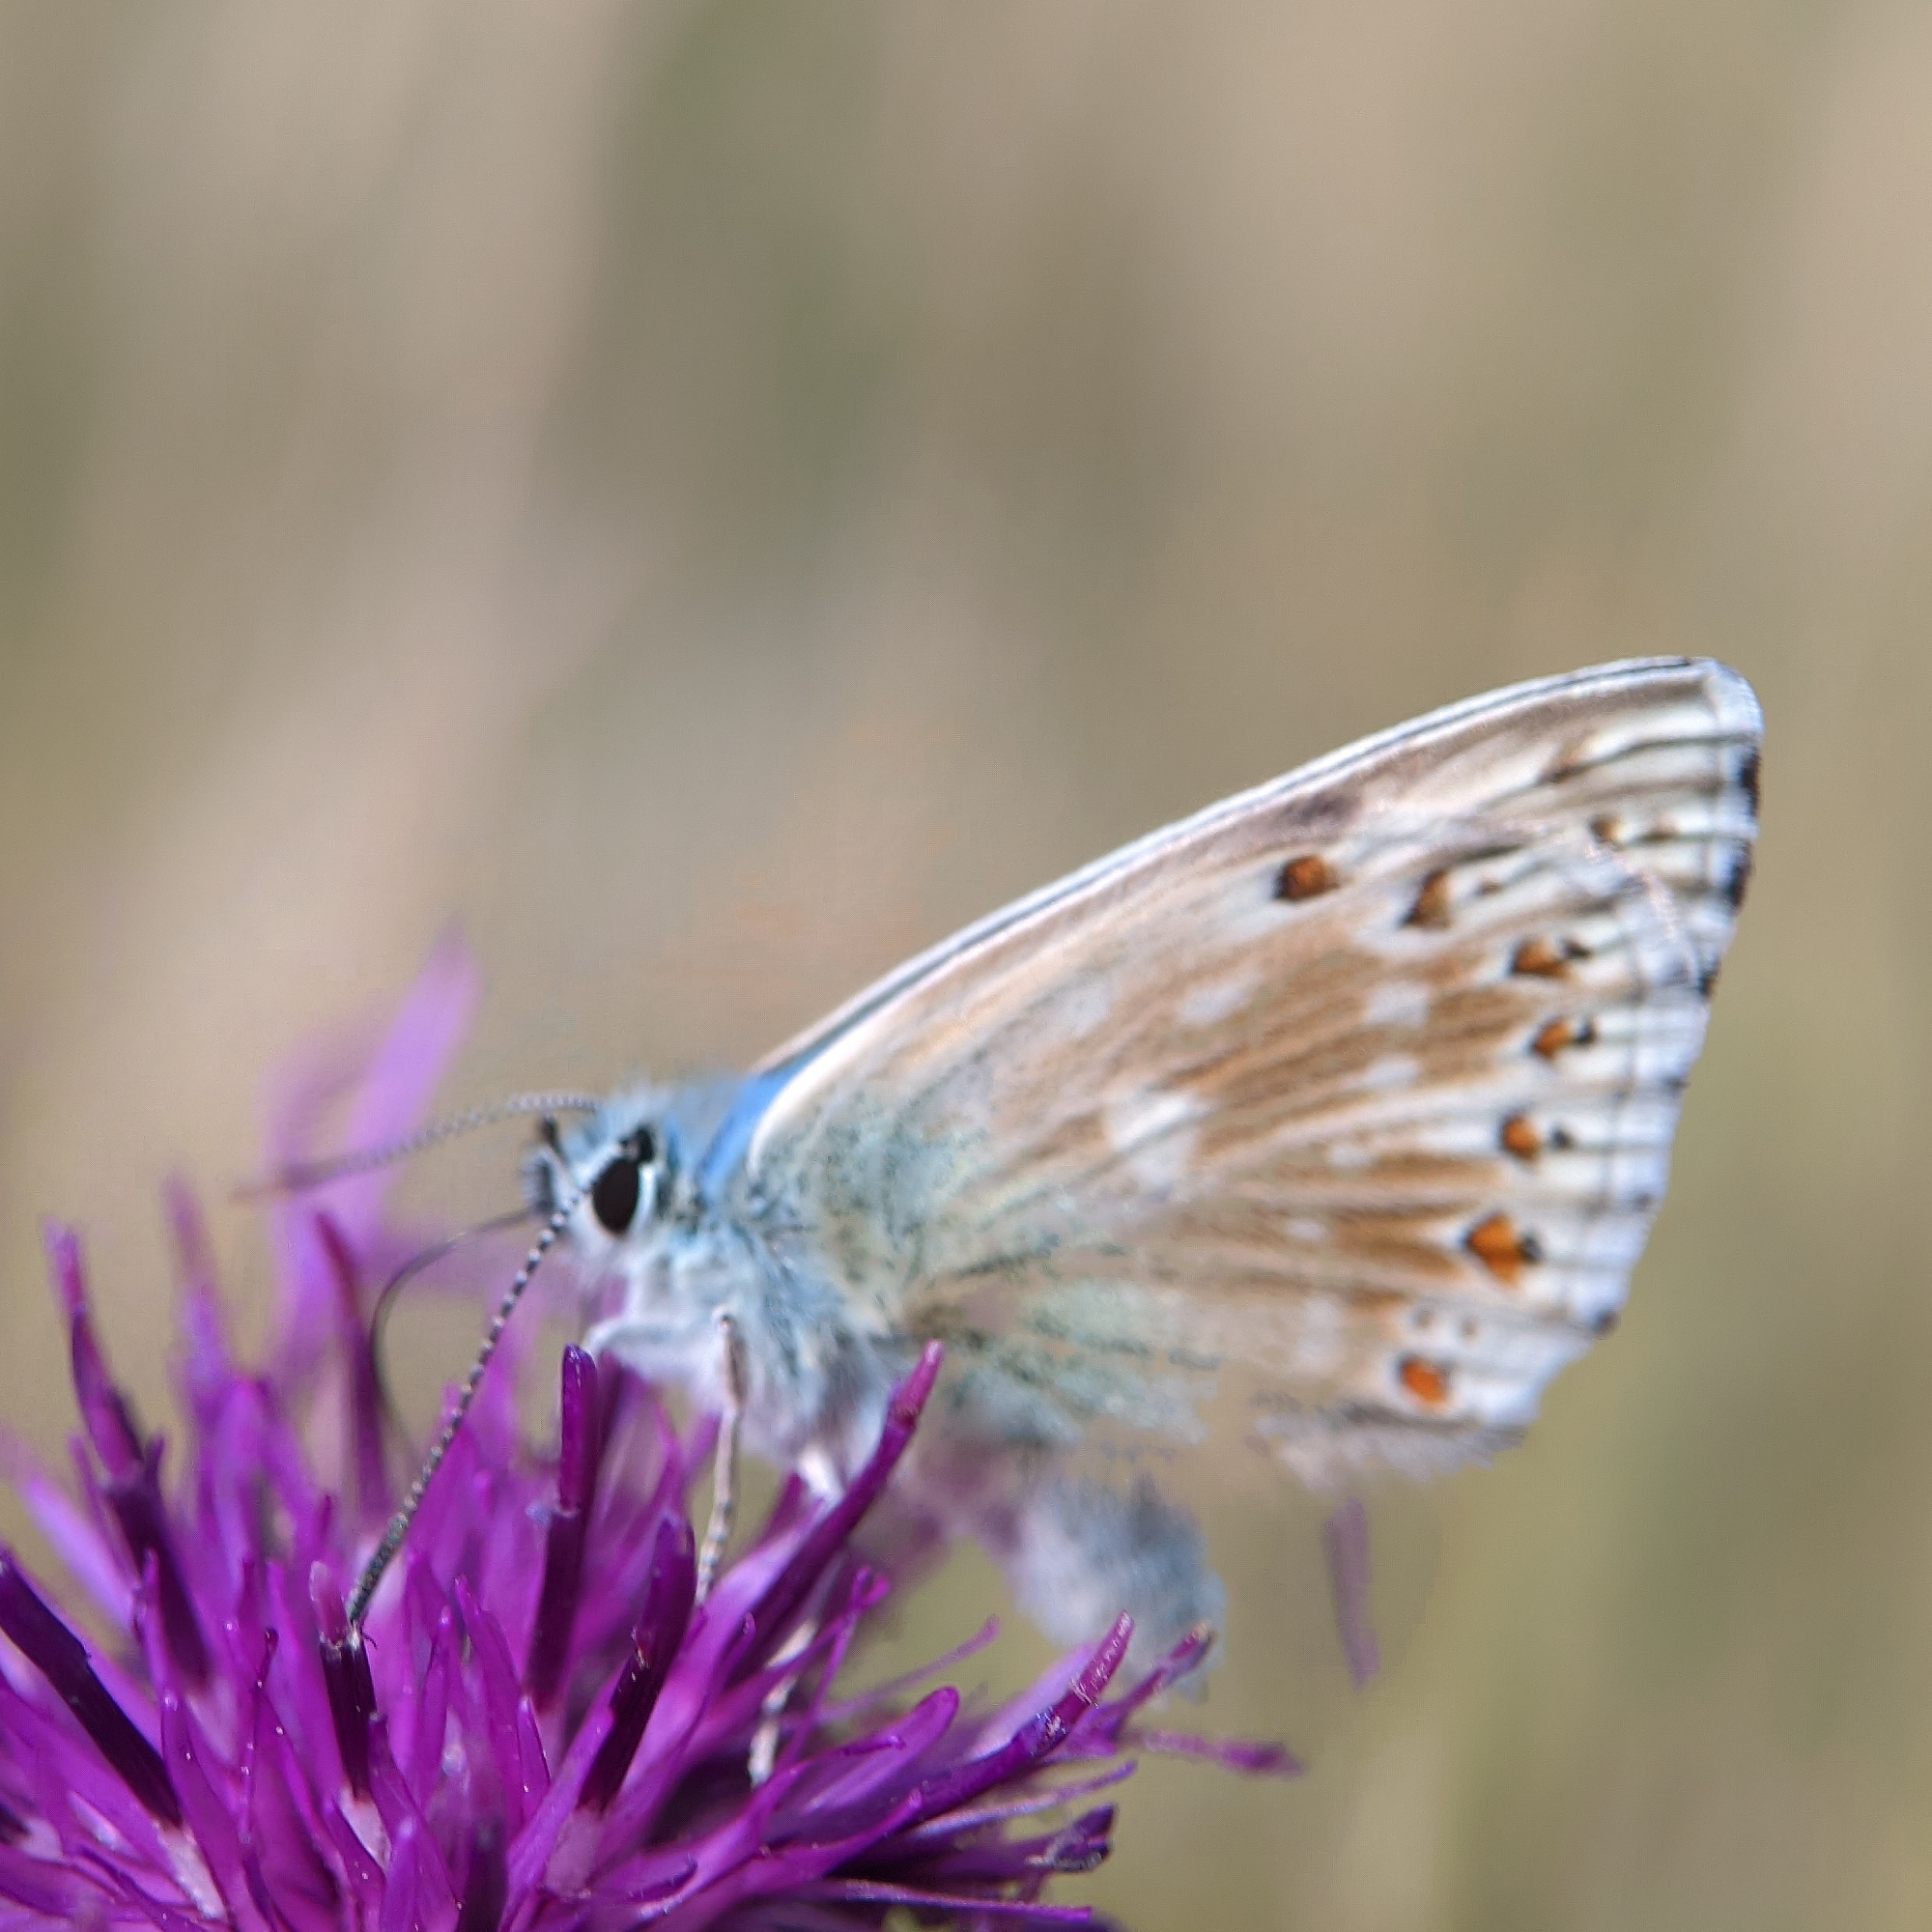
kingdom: Animalia
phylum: Arthropoda
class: Insecta
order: Lepidoptera
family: Lycaenidae
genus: Lysandra
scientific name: Lysandra coridon
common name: Chalkhill blue
